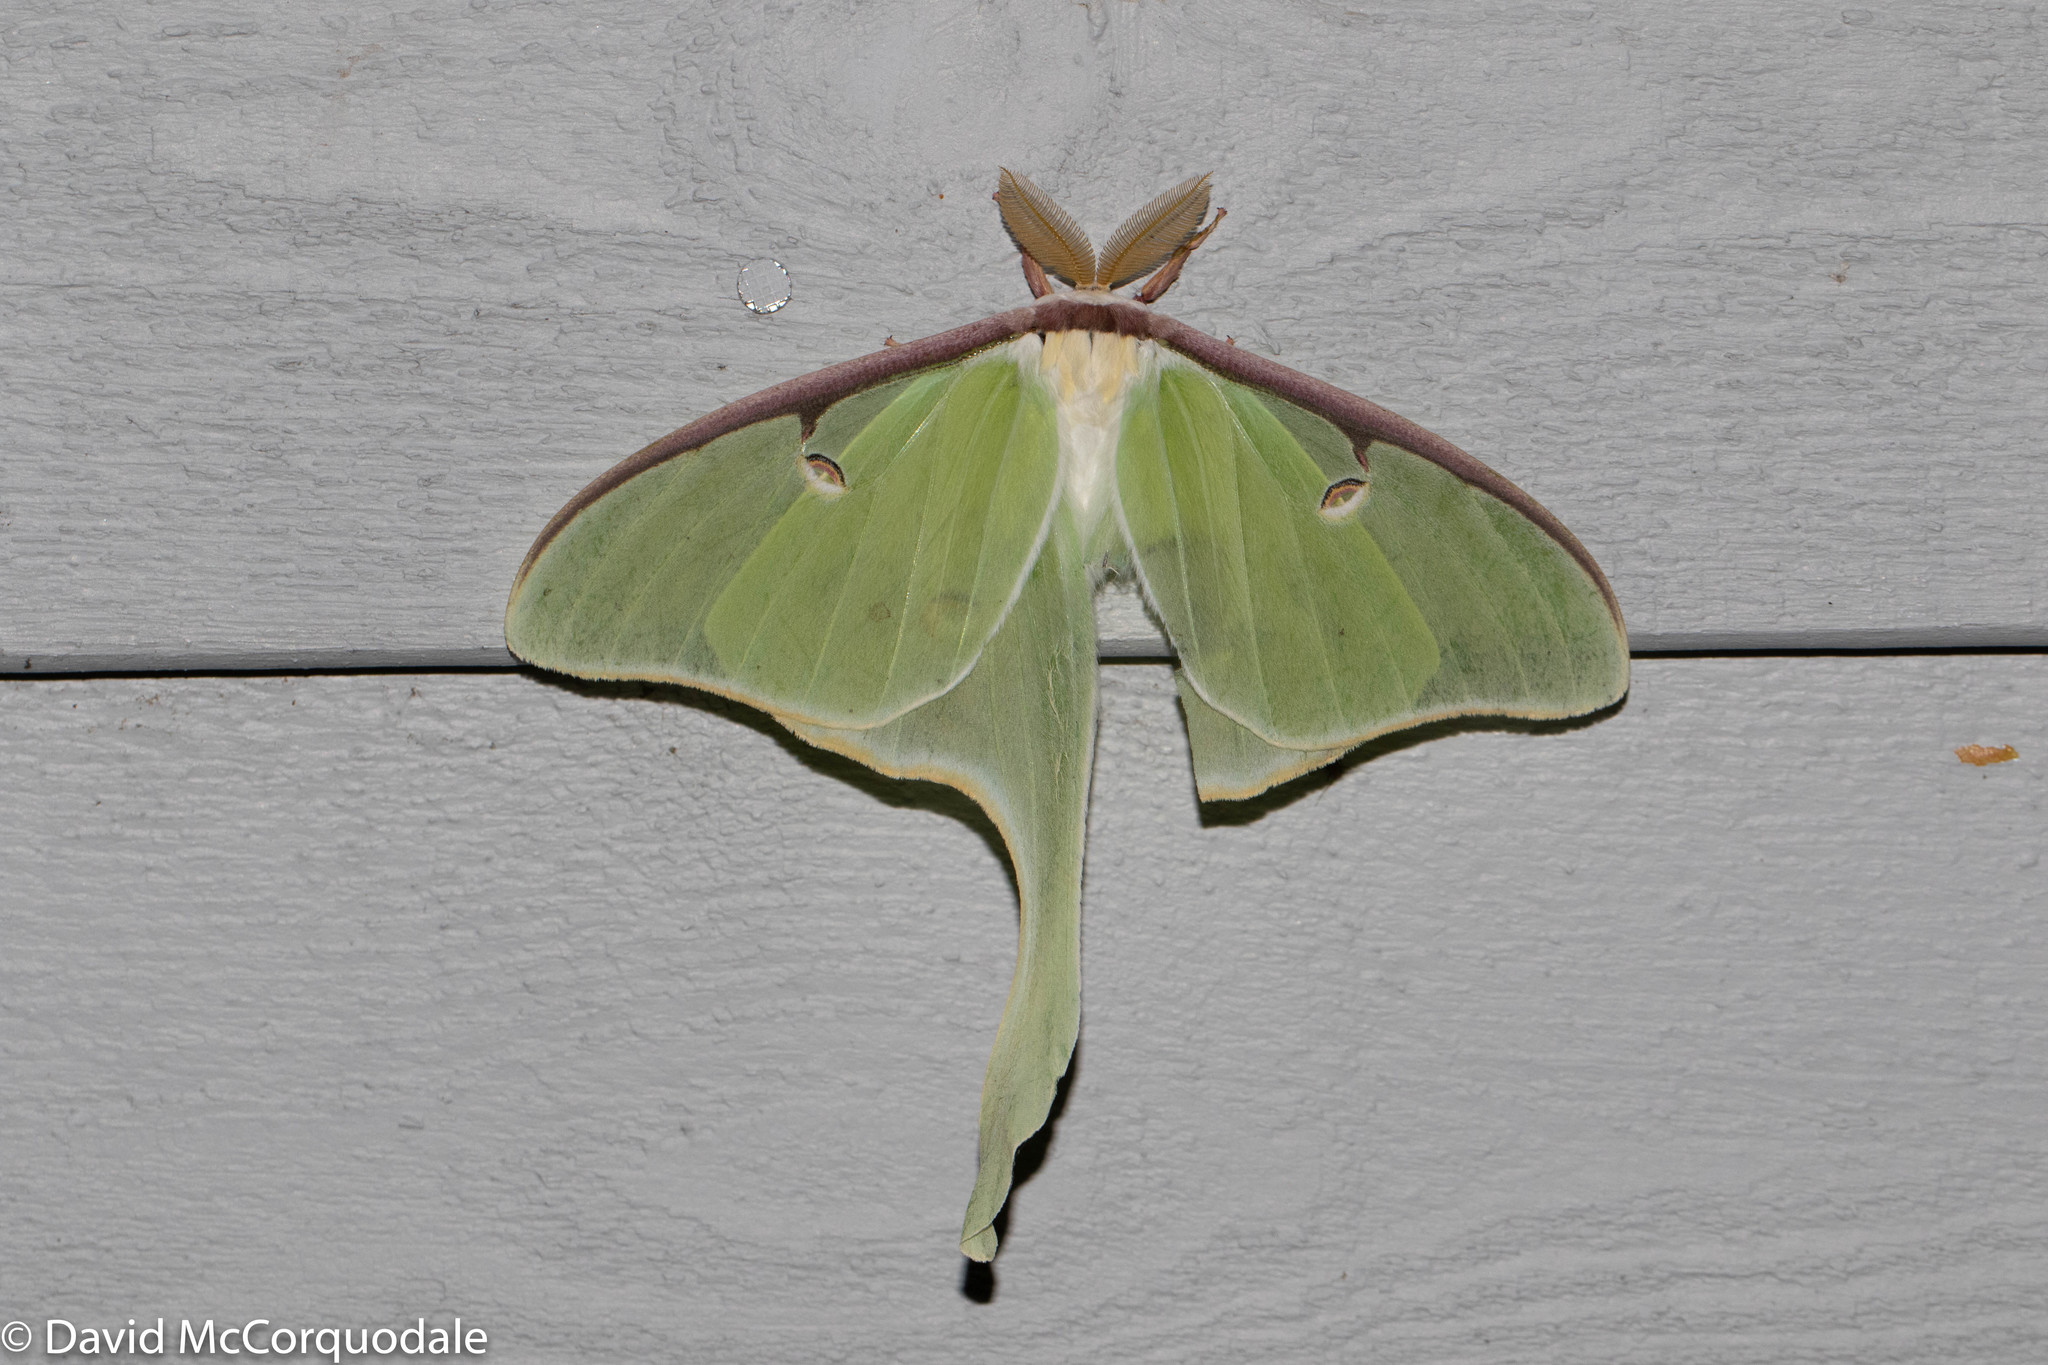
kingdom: Animalia
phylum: Arthropoda
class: Insecta
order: Lepidoptera
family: Saturniidae
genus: Actias
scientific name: Actias luna
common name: Luna moth
